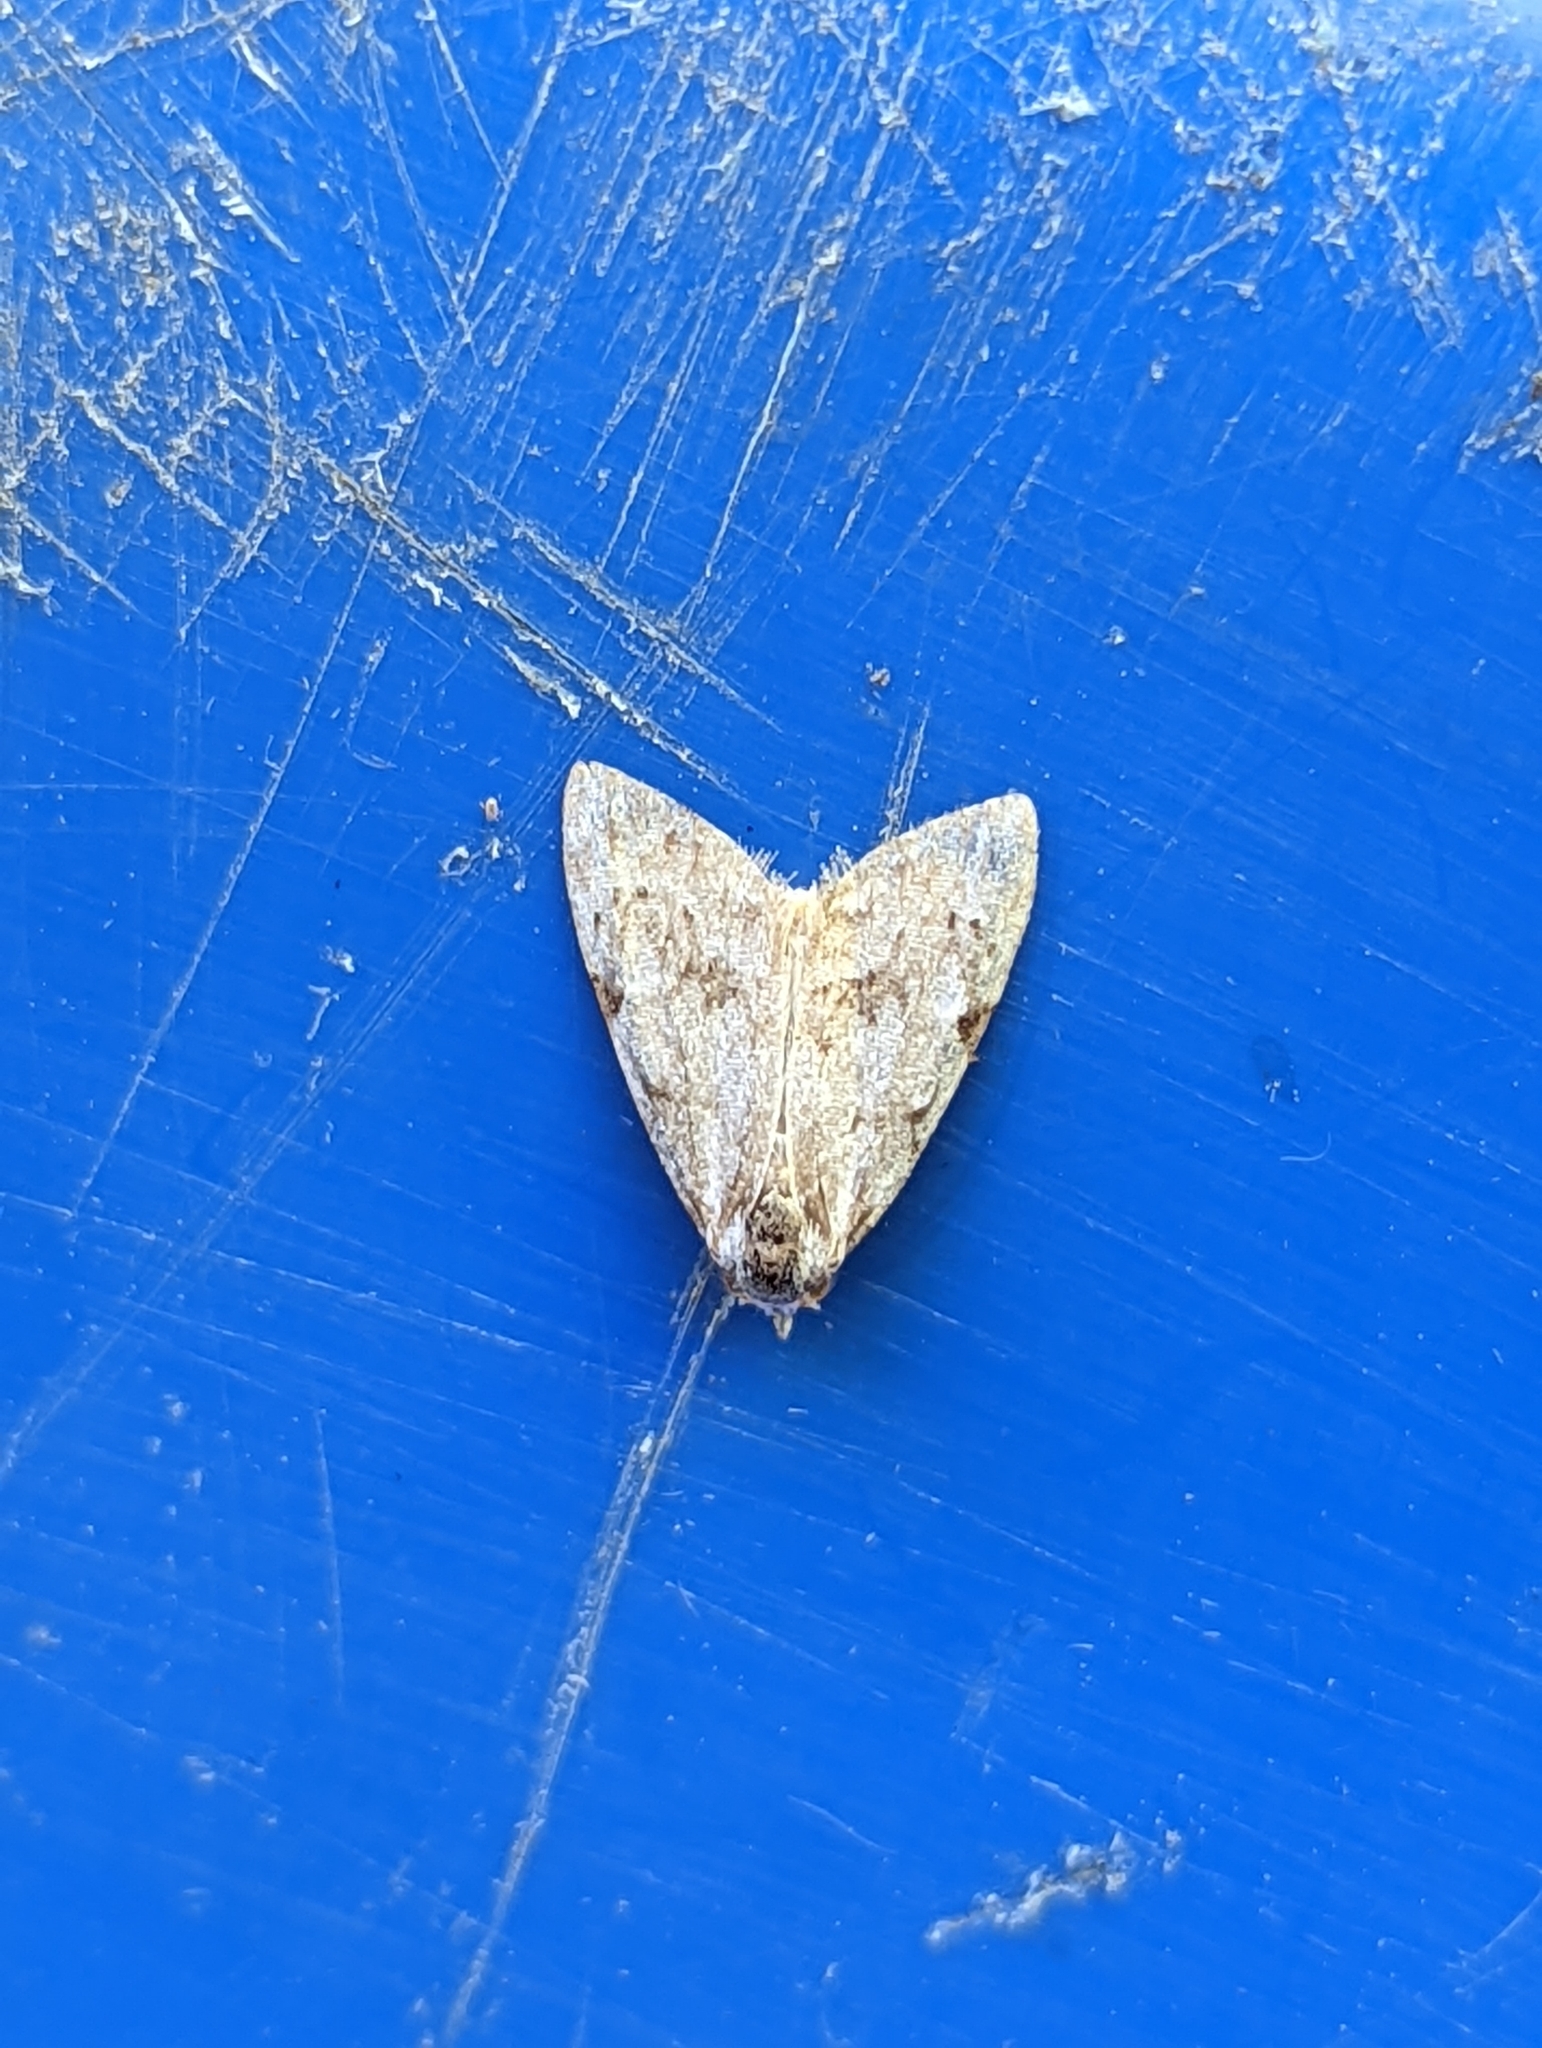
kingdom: Animalia
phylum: Arthropoda
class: Insecta
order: Lepidoptera
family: Nolidae
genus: Nola
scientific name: Nola confusalis
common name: Least black arches
